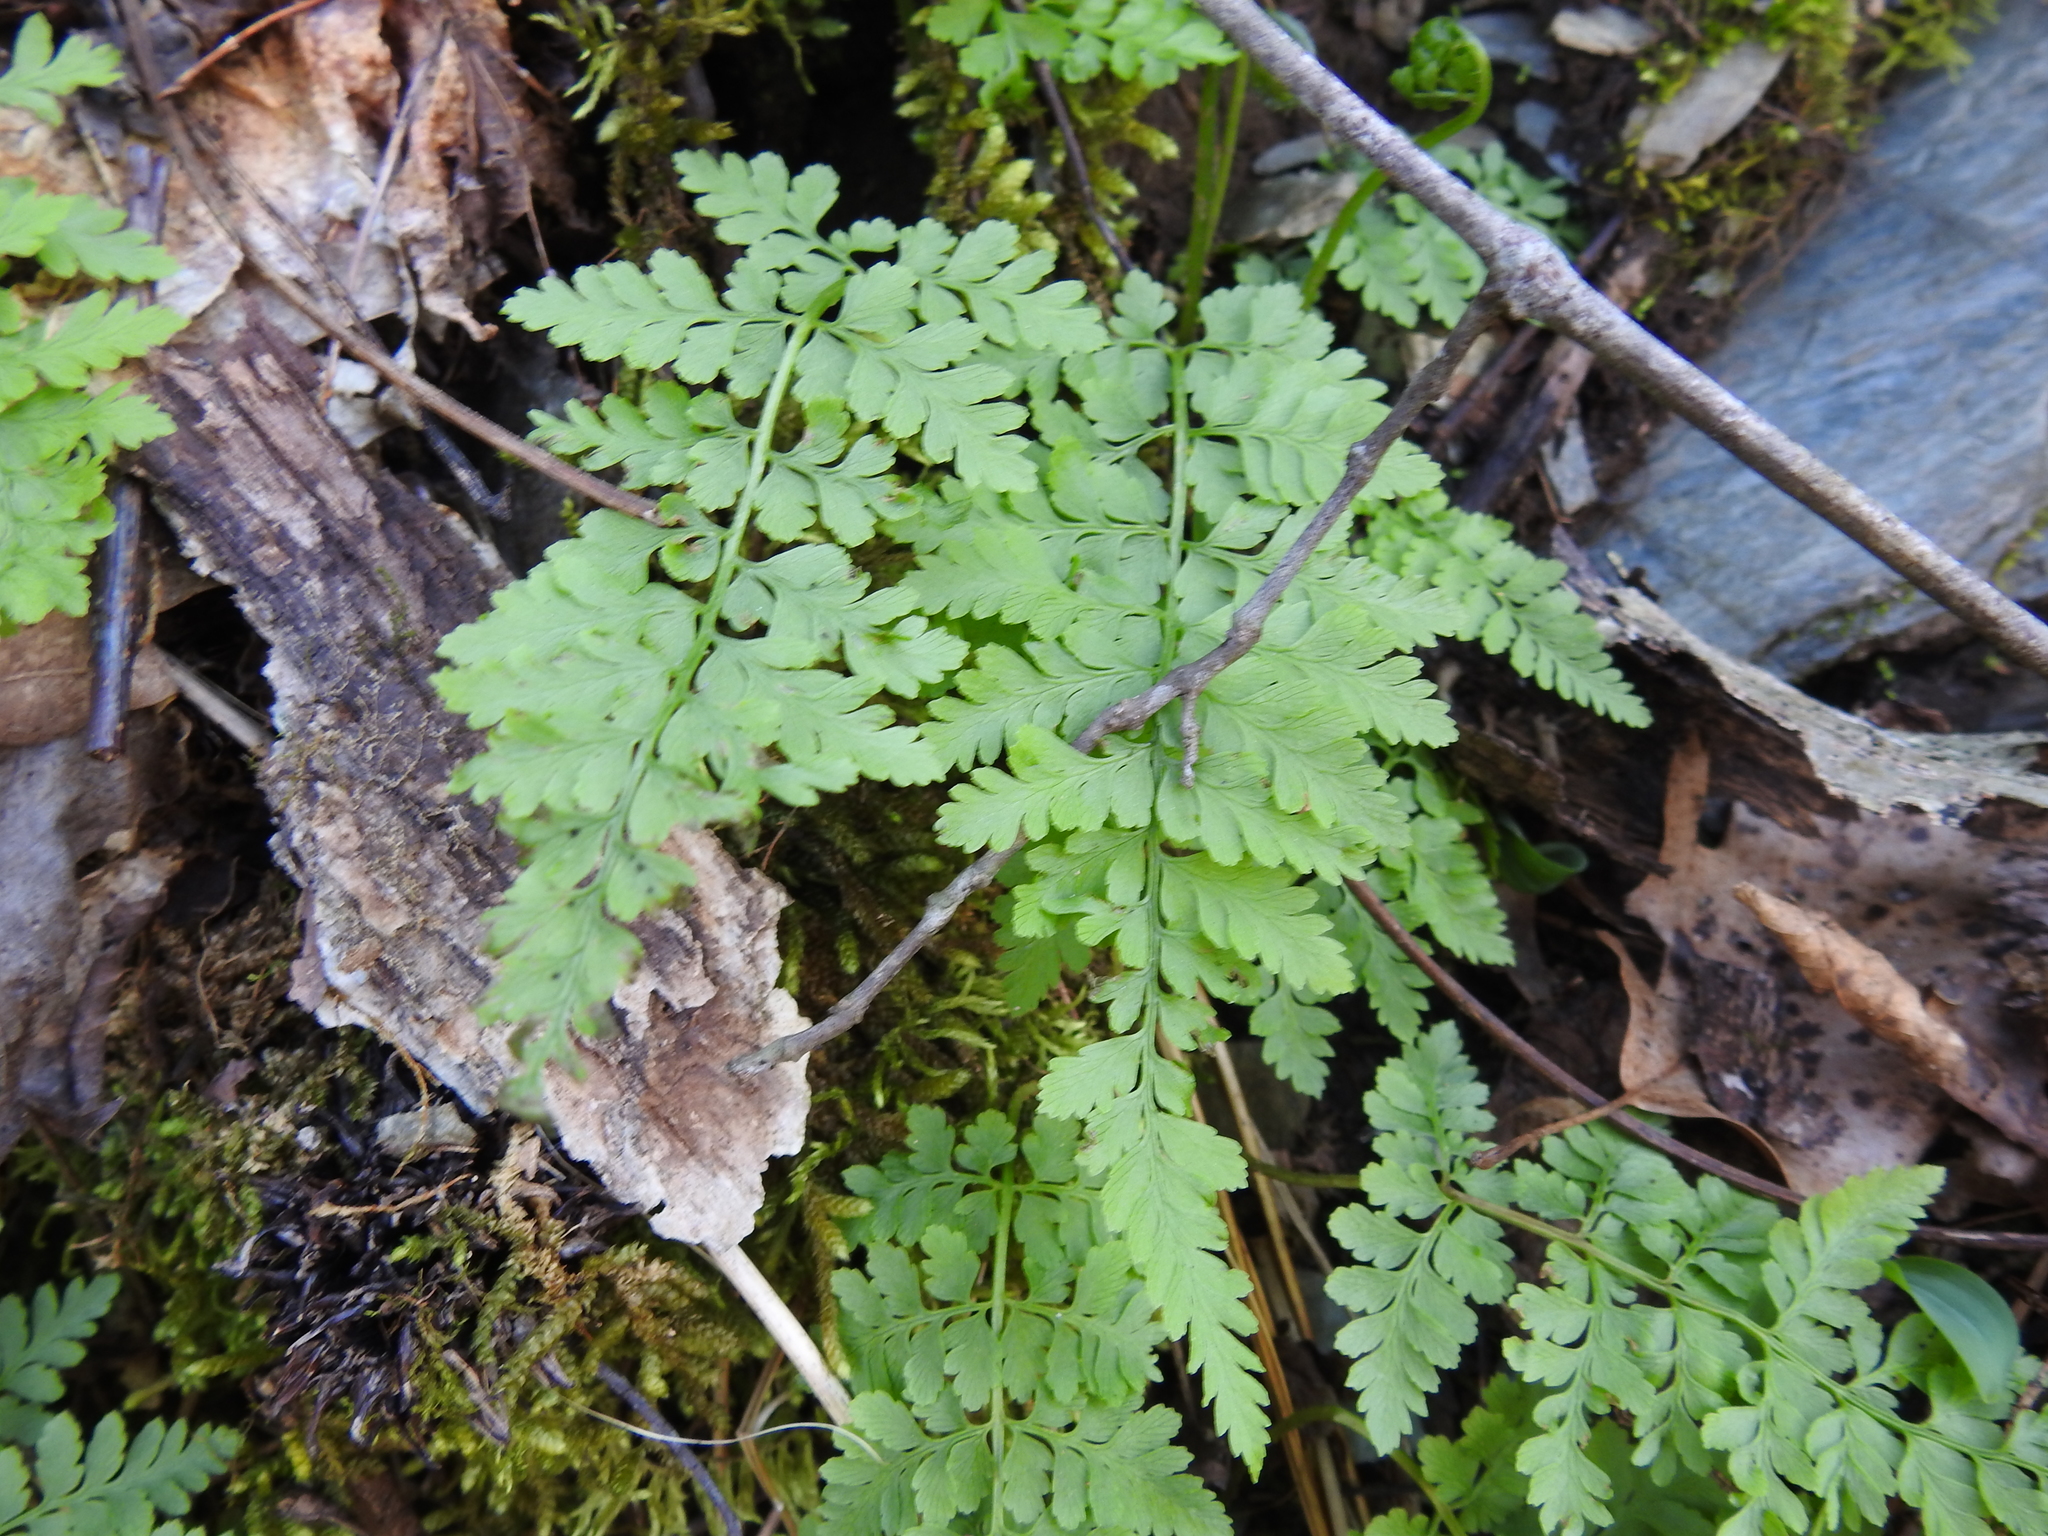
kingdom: Plantae
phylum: Tracheophyta
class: Polypodiopsida
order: Polypodiales
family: Cystopteridaceae
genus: Cystopteris
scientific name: Cystopteris protrusa
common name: Lowland brittle fern
